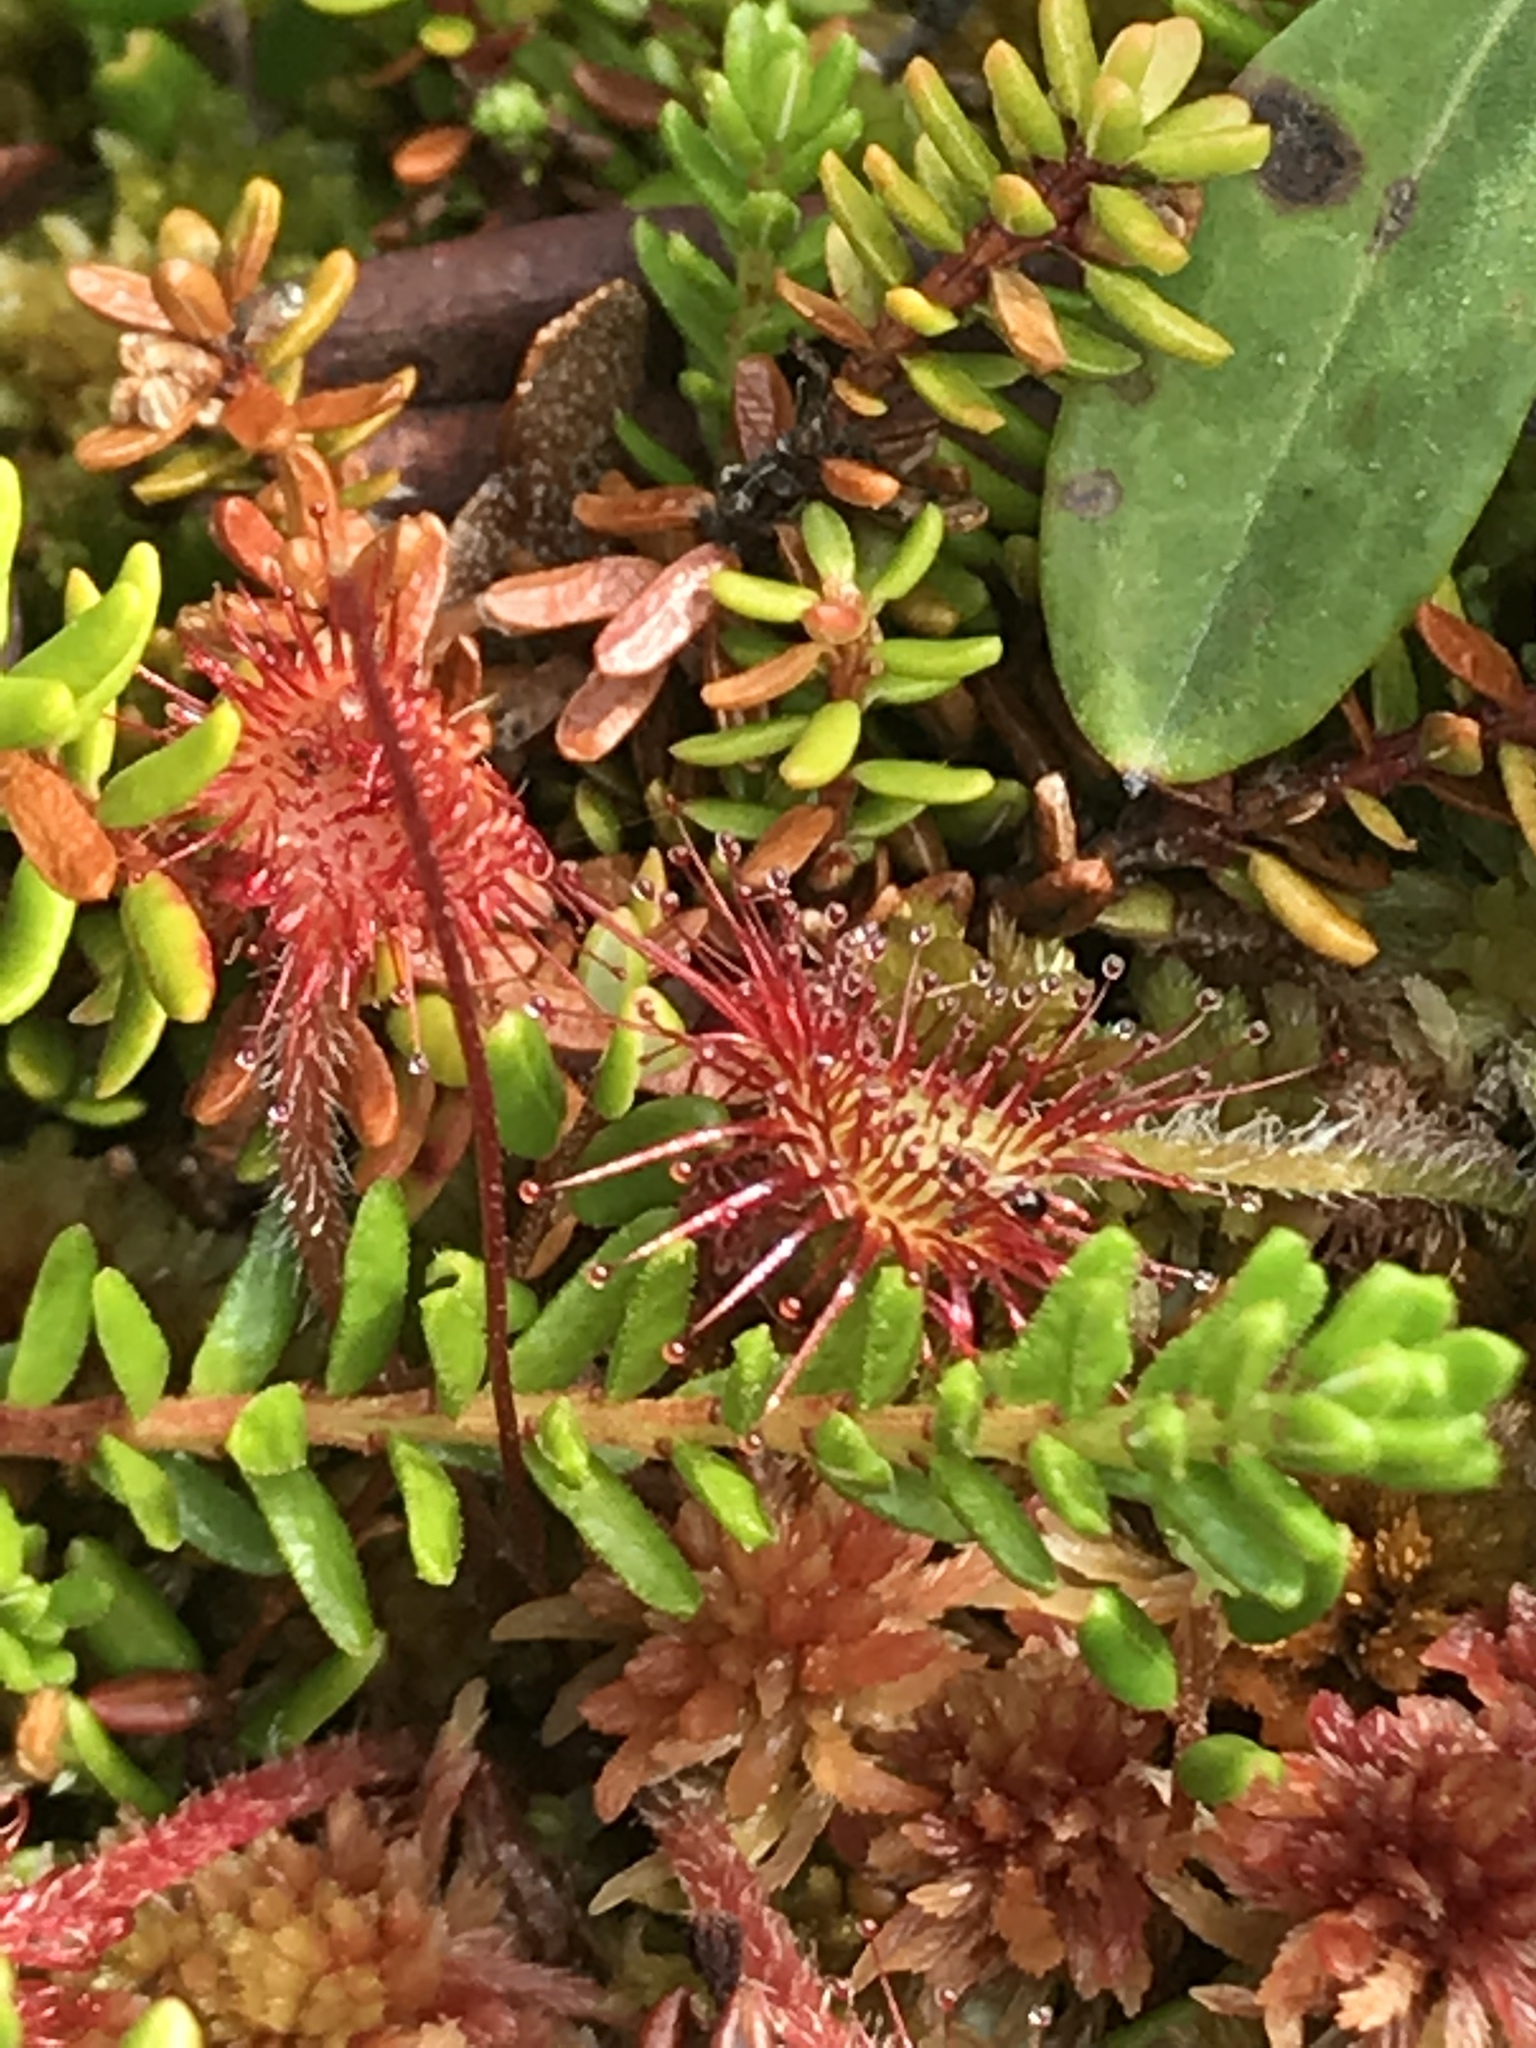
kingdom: Plantae
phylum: Tracheophyta
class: Magnoliopsida
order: Caryophyllales
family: Droseraceae
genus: Drosera
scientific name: Drosera rotundifolia
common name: Round-leaved sundew
